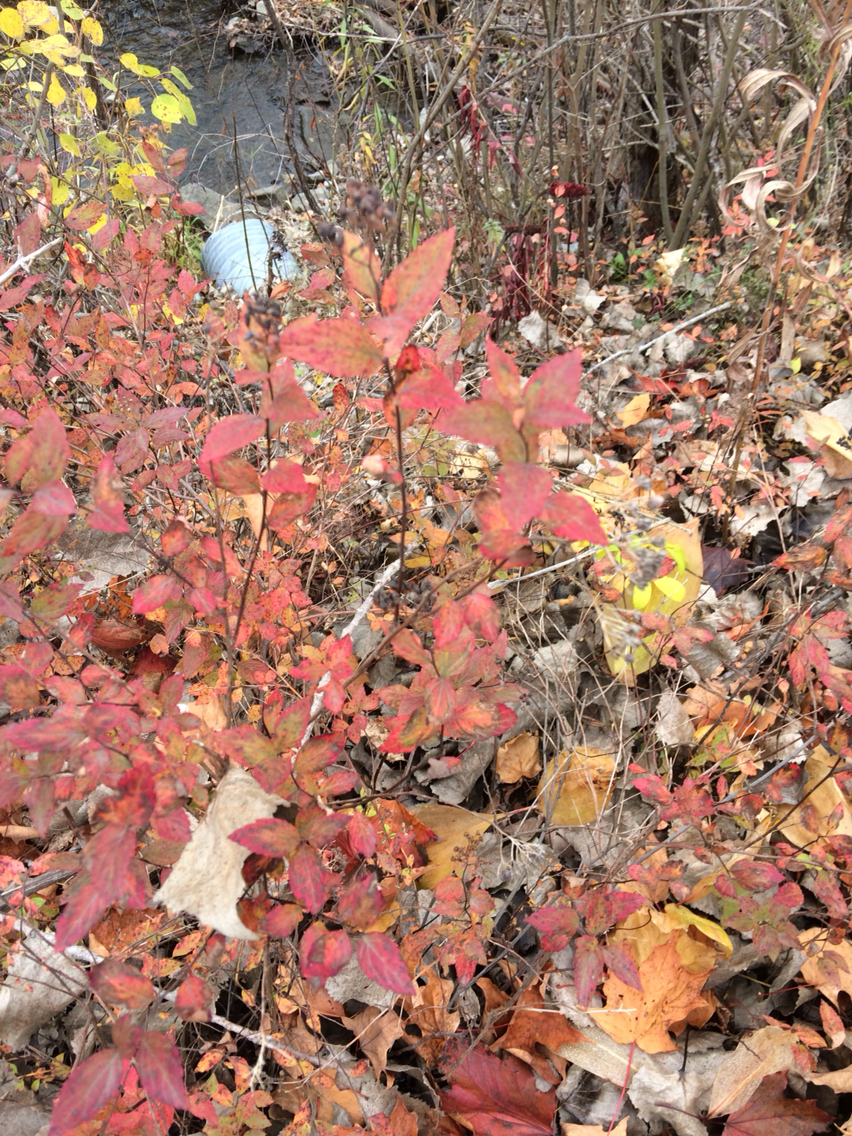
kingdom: Plantae
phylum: Tracheophyta
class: Magnoliopsida
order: Rosales
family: Rosaceae
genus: Spiraea
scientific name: Spiraea alba
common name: Pale bridewort
